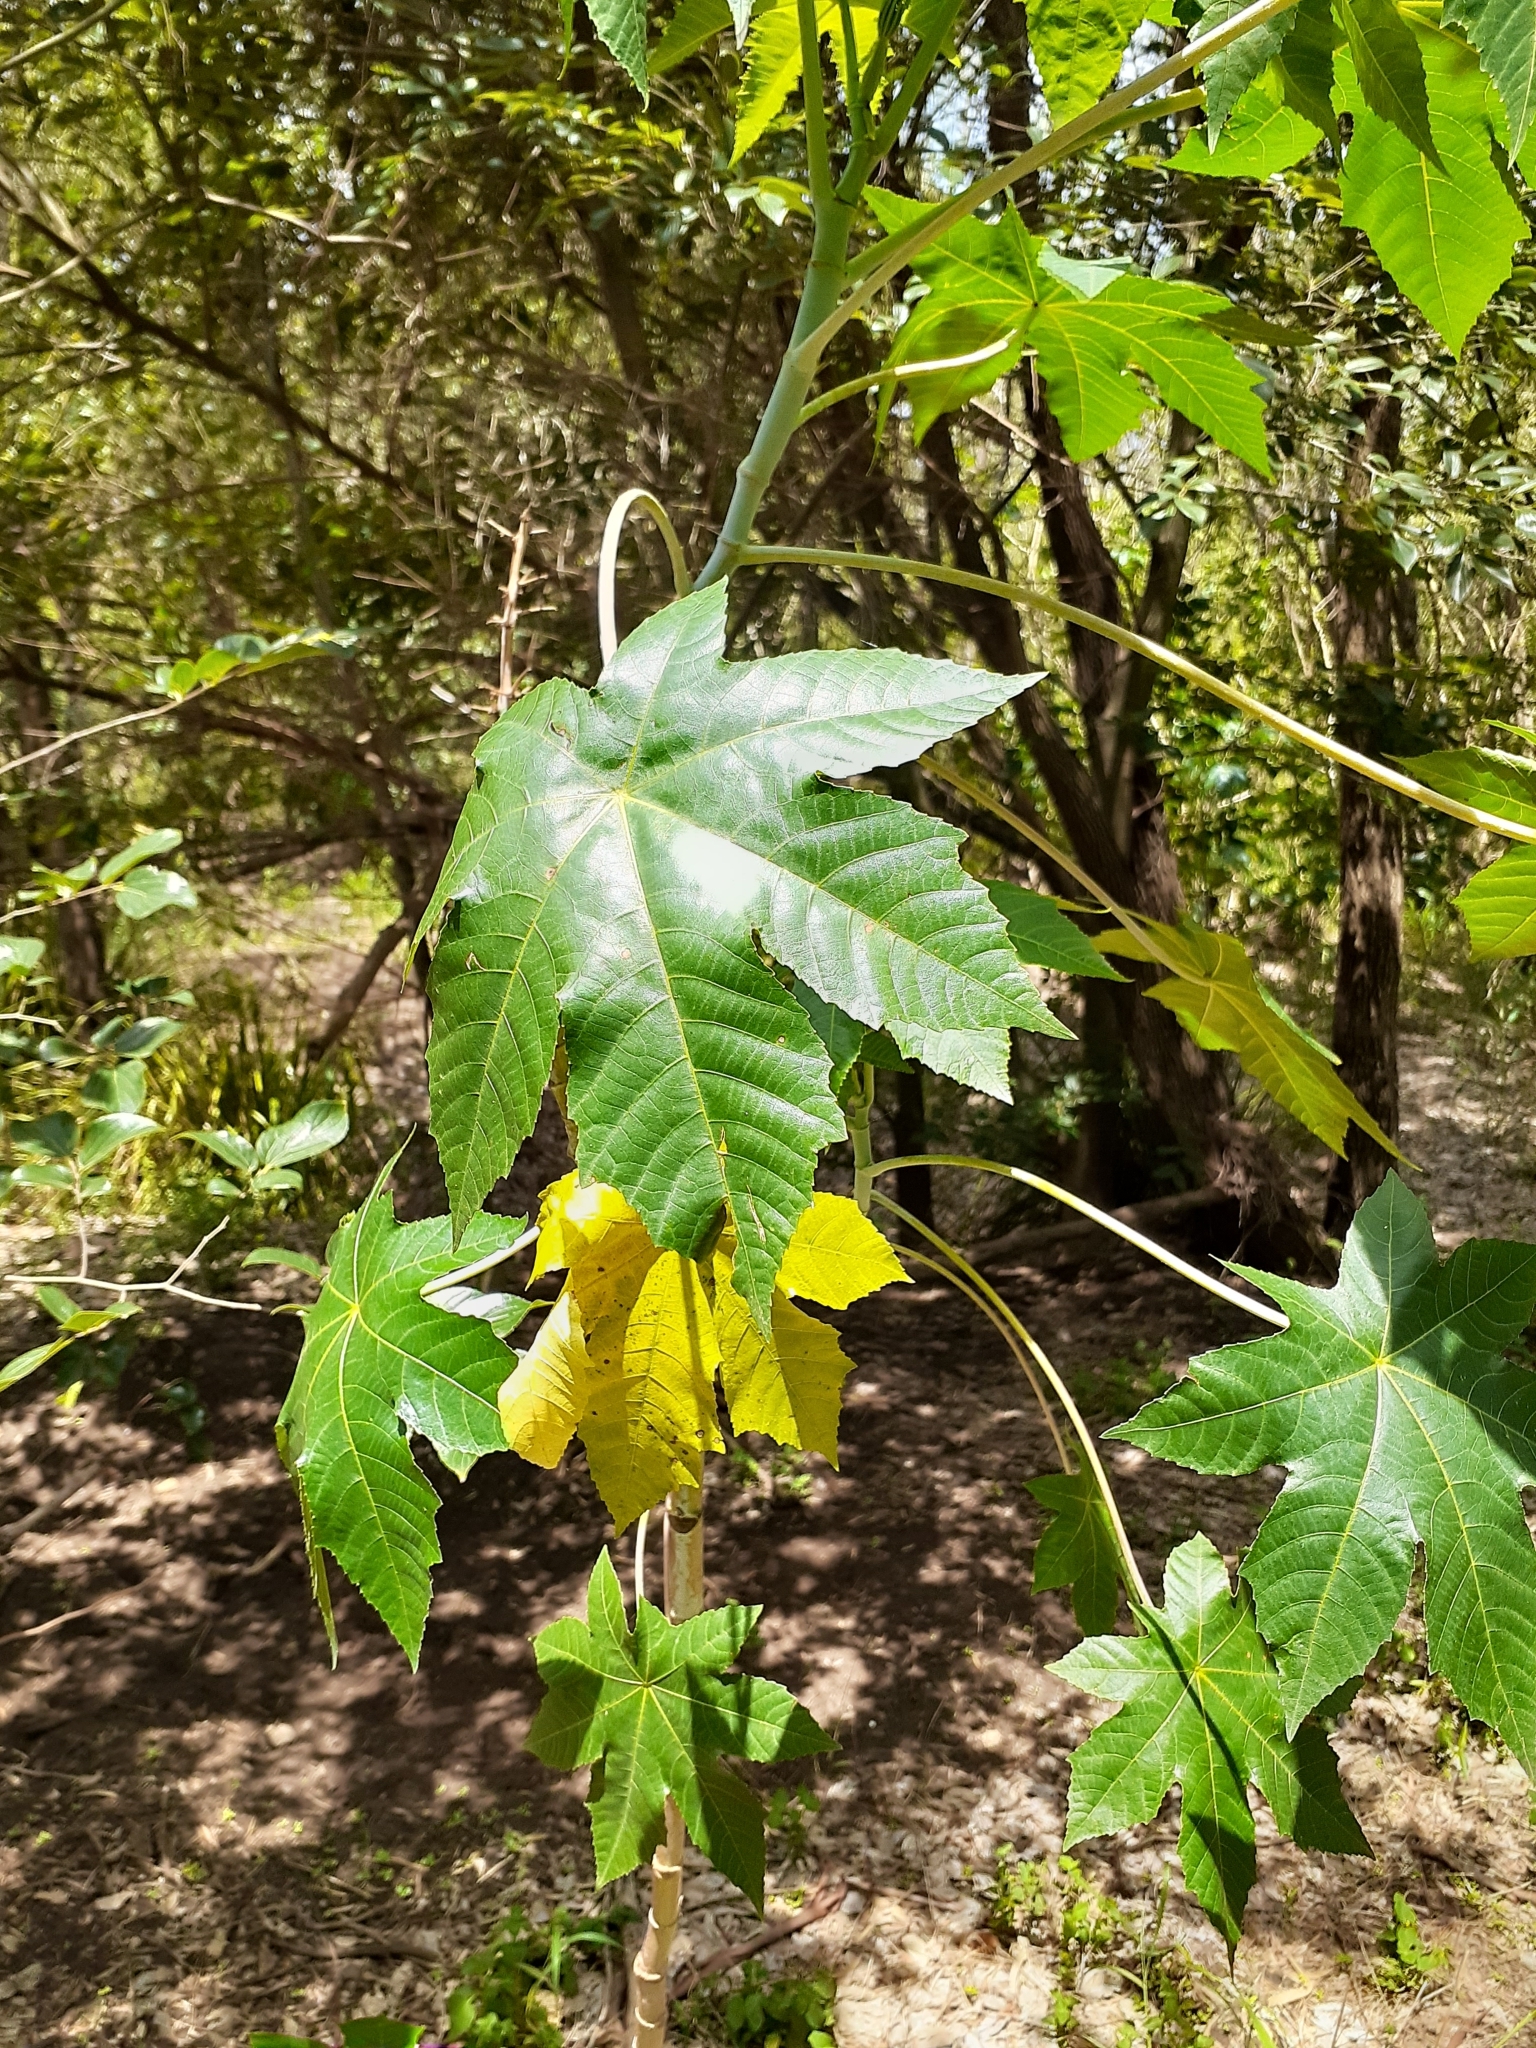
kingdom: Plantae
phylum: Tracheophyta
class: Magnoliopsida
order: Malpighiales
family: Euphorbiaceae
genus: Ricinus
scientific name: Ricinus communis
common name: Castor-oil-plant
